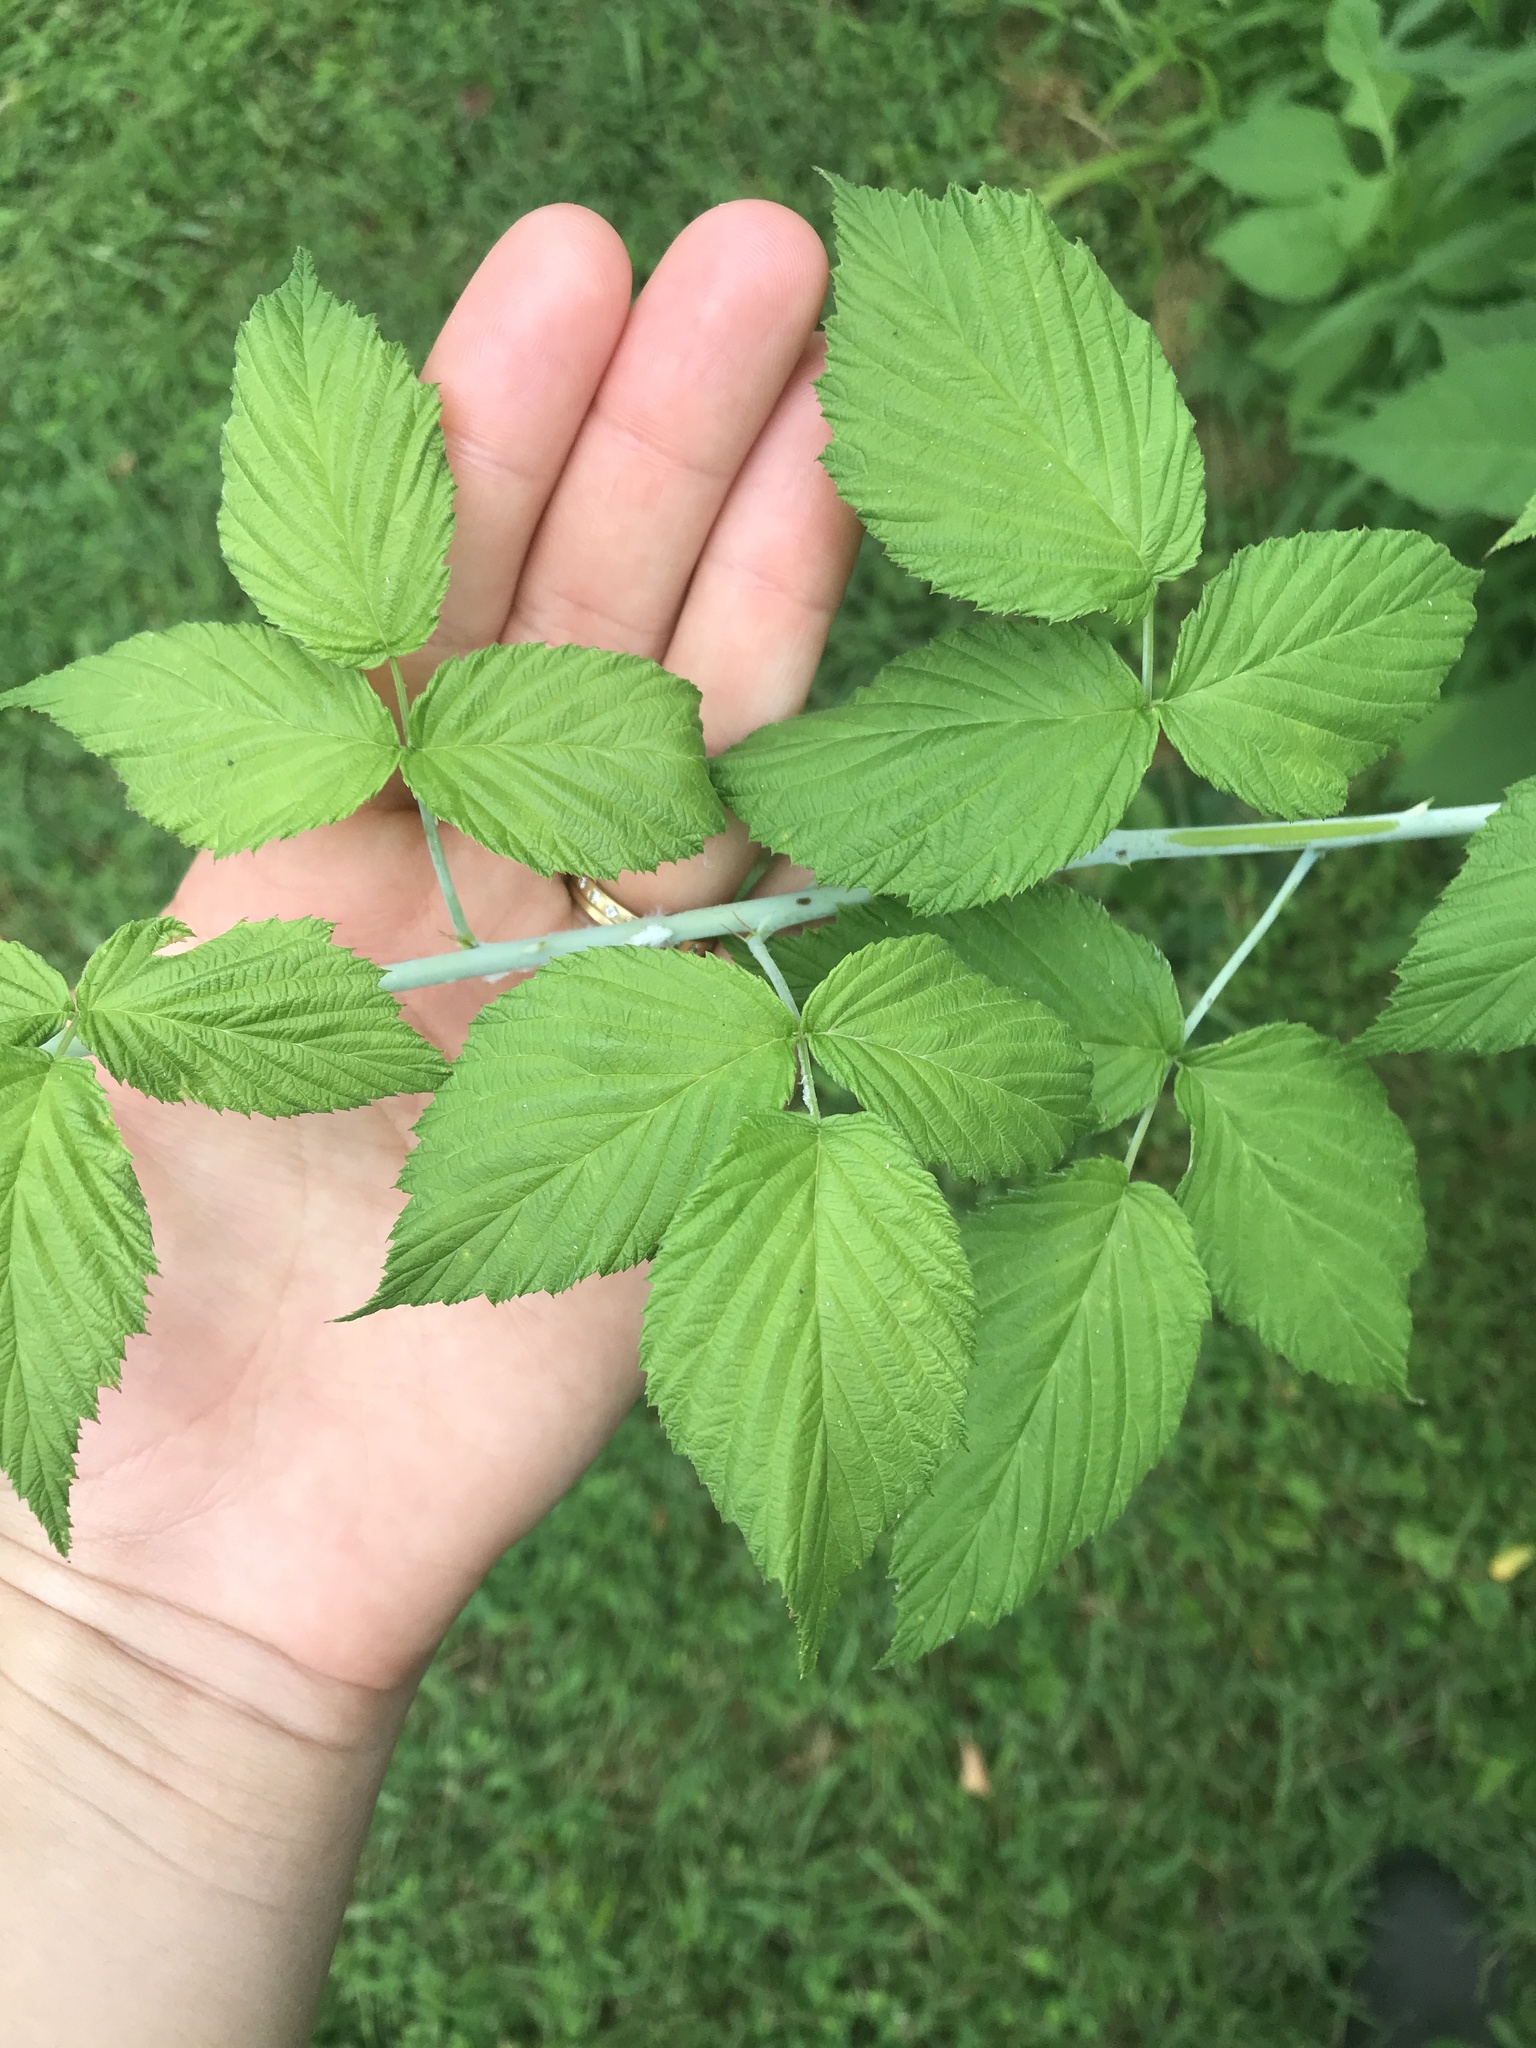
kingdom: Plantae
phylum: Tracheophyta
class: Magnoliopsida
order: Rosales
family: Rosaceae
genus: Rubus
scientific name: Rubus occidentalis
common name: Black raspberry
